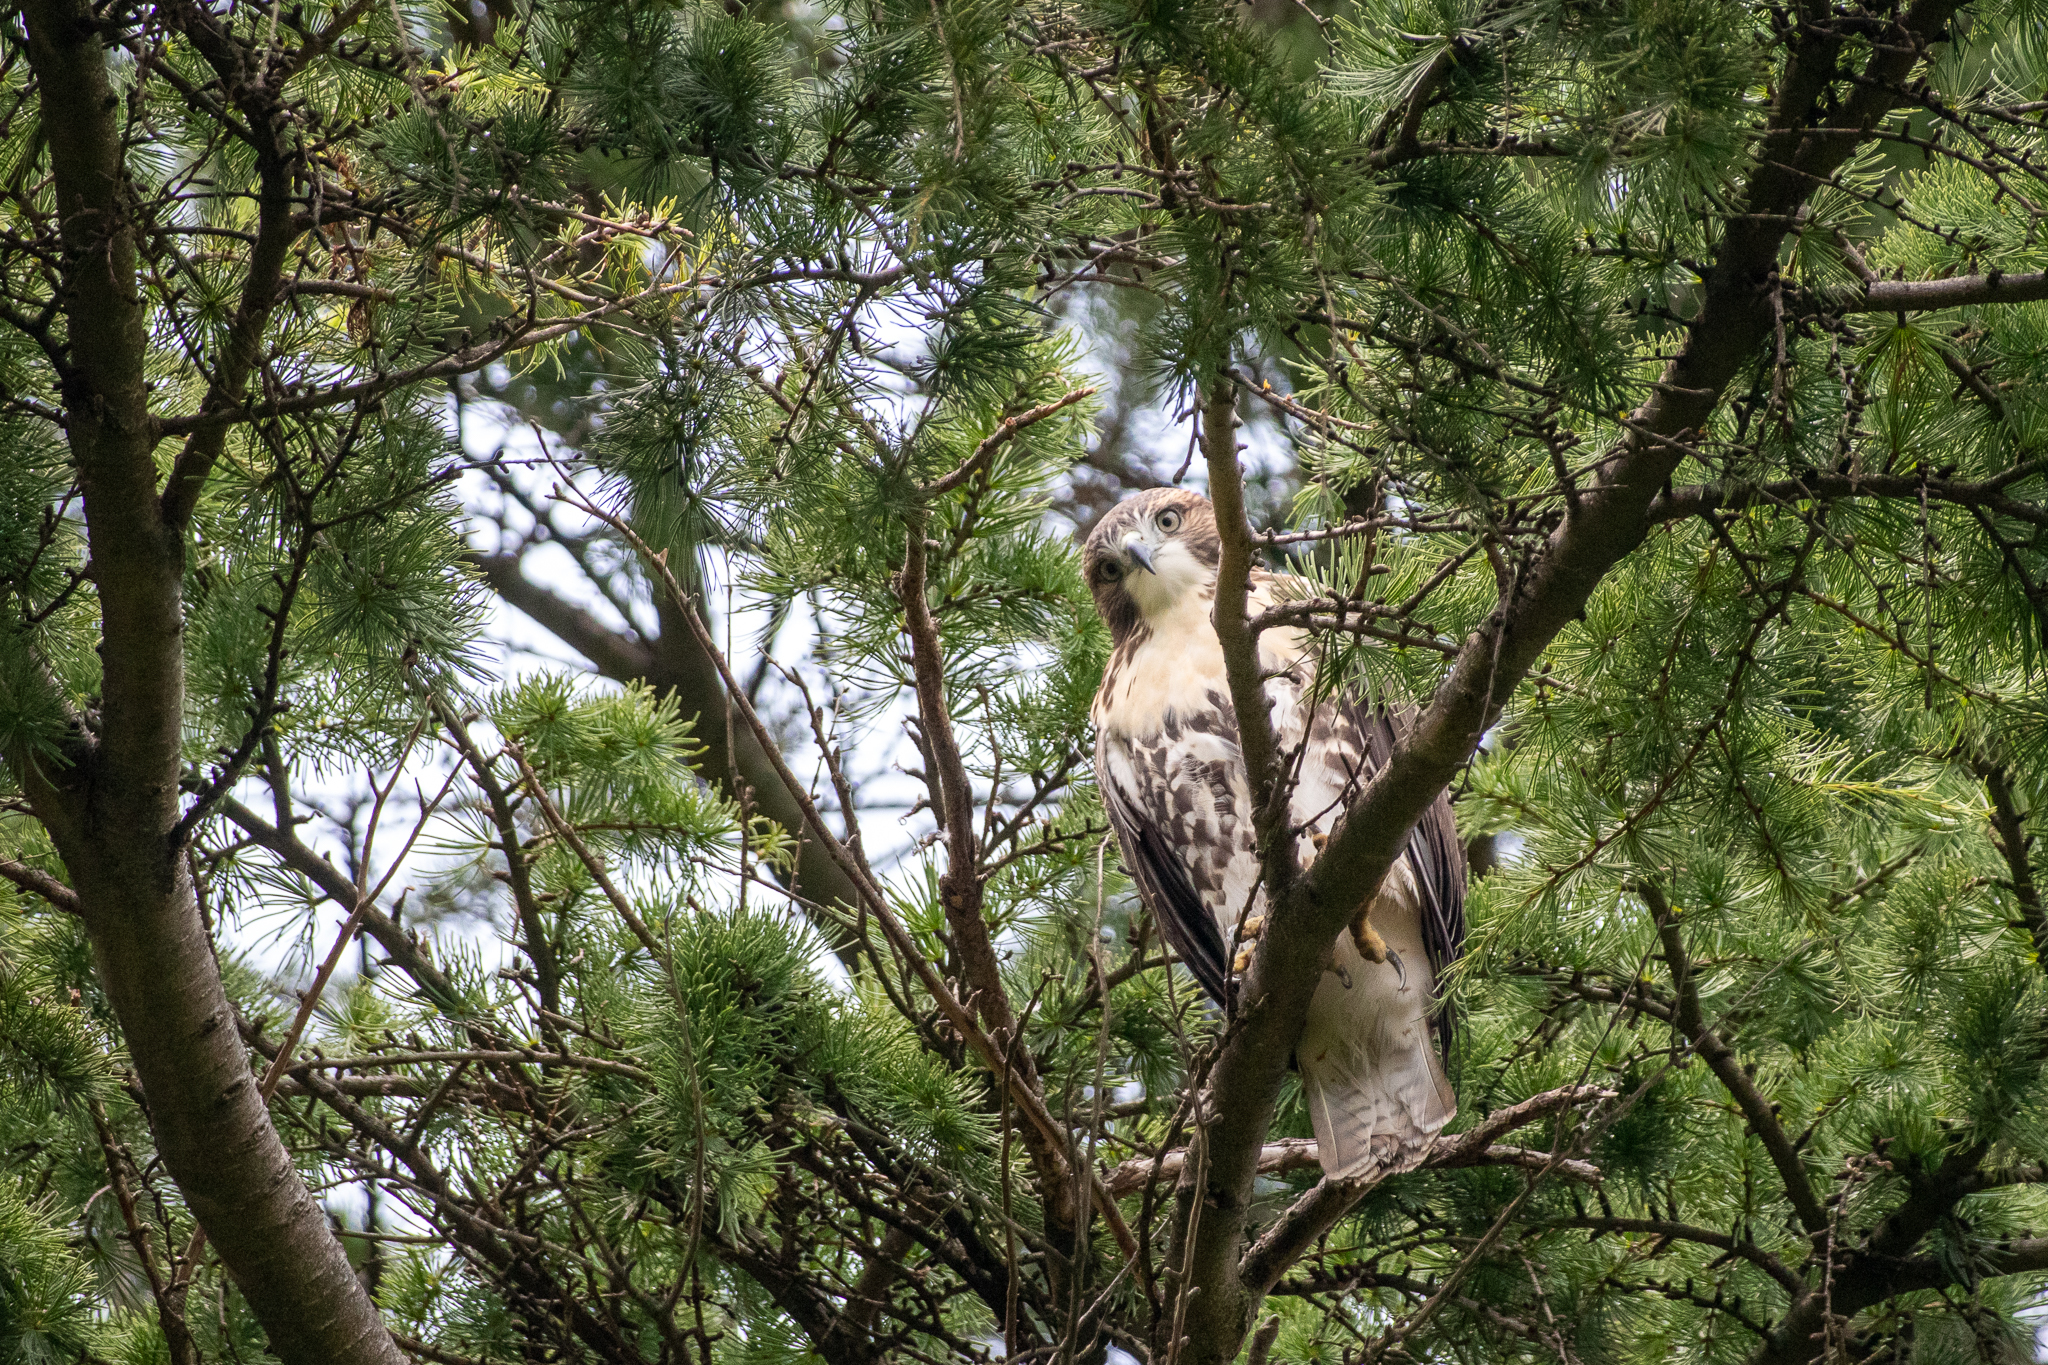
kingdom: Animalia
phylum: Chordata
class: Aves
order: Accipitriformes
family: Accipitridae
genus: Buteo
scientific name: Buteo jamaicensis
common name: Red-tailed hawk
